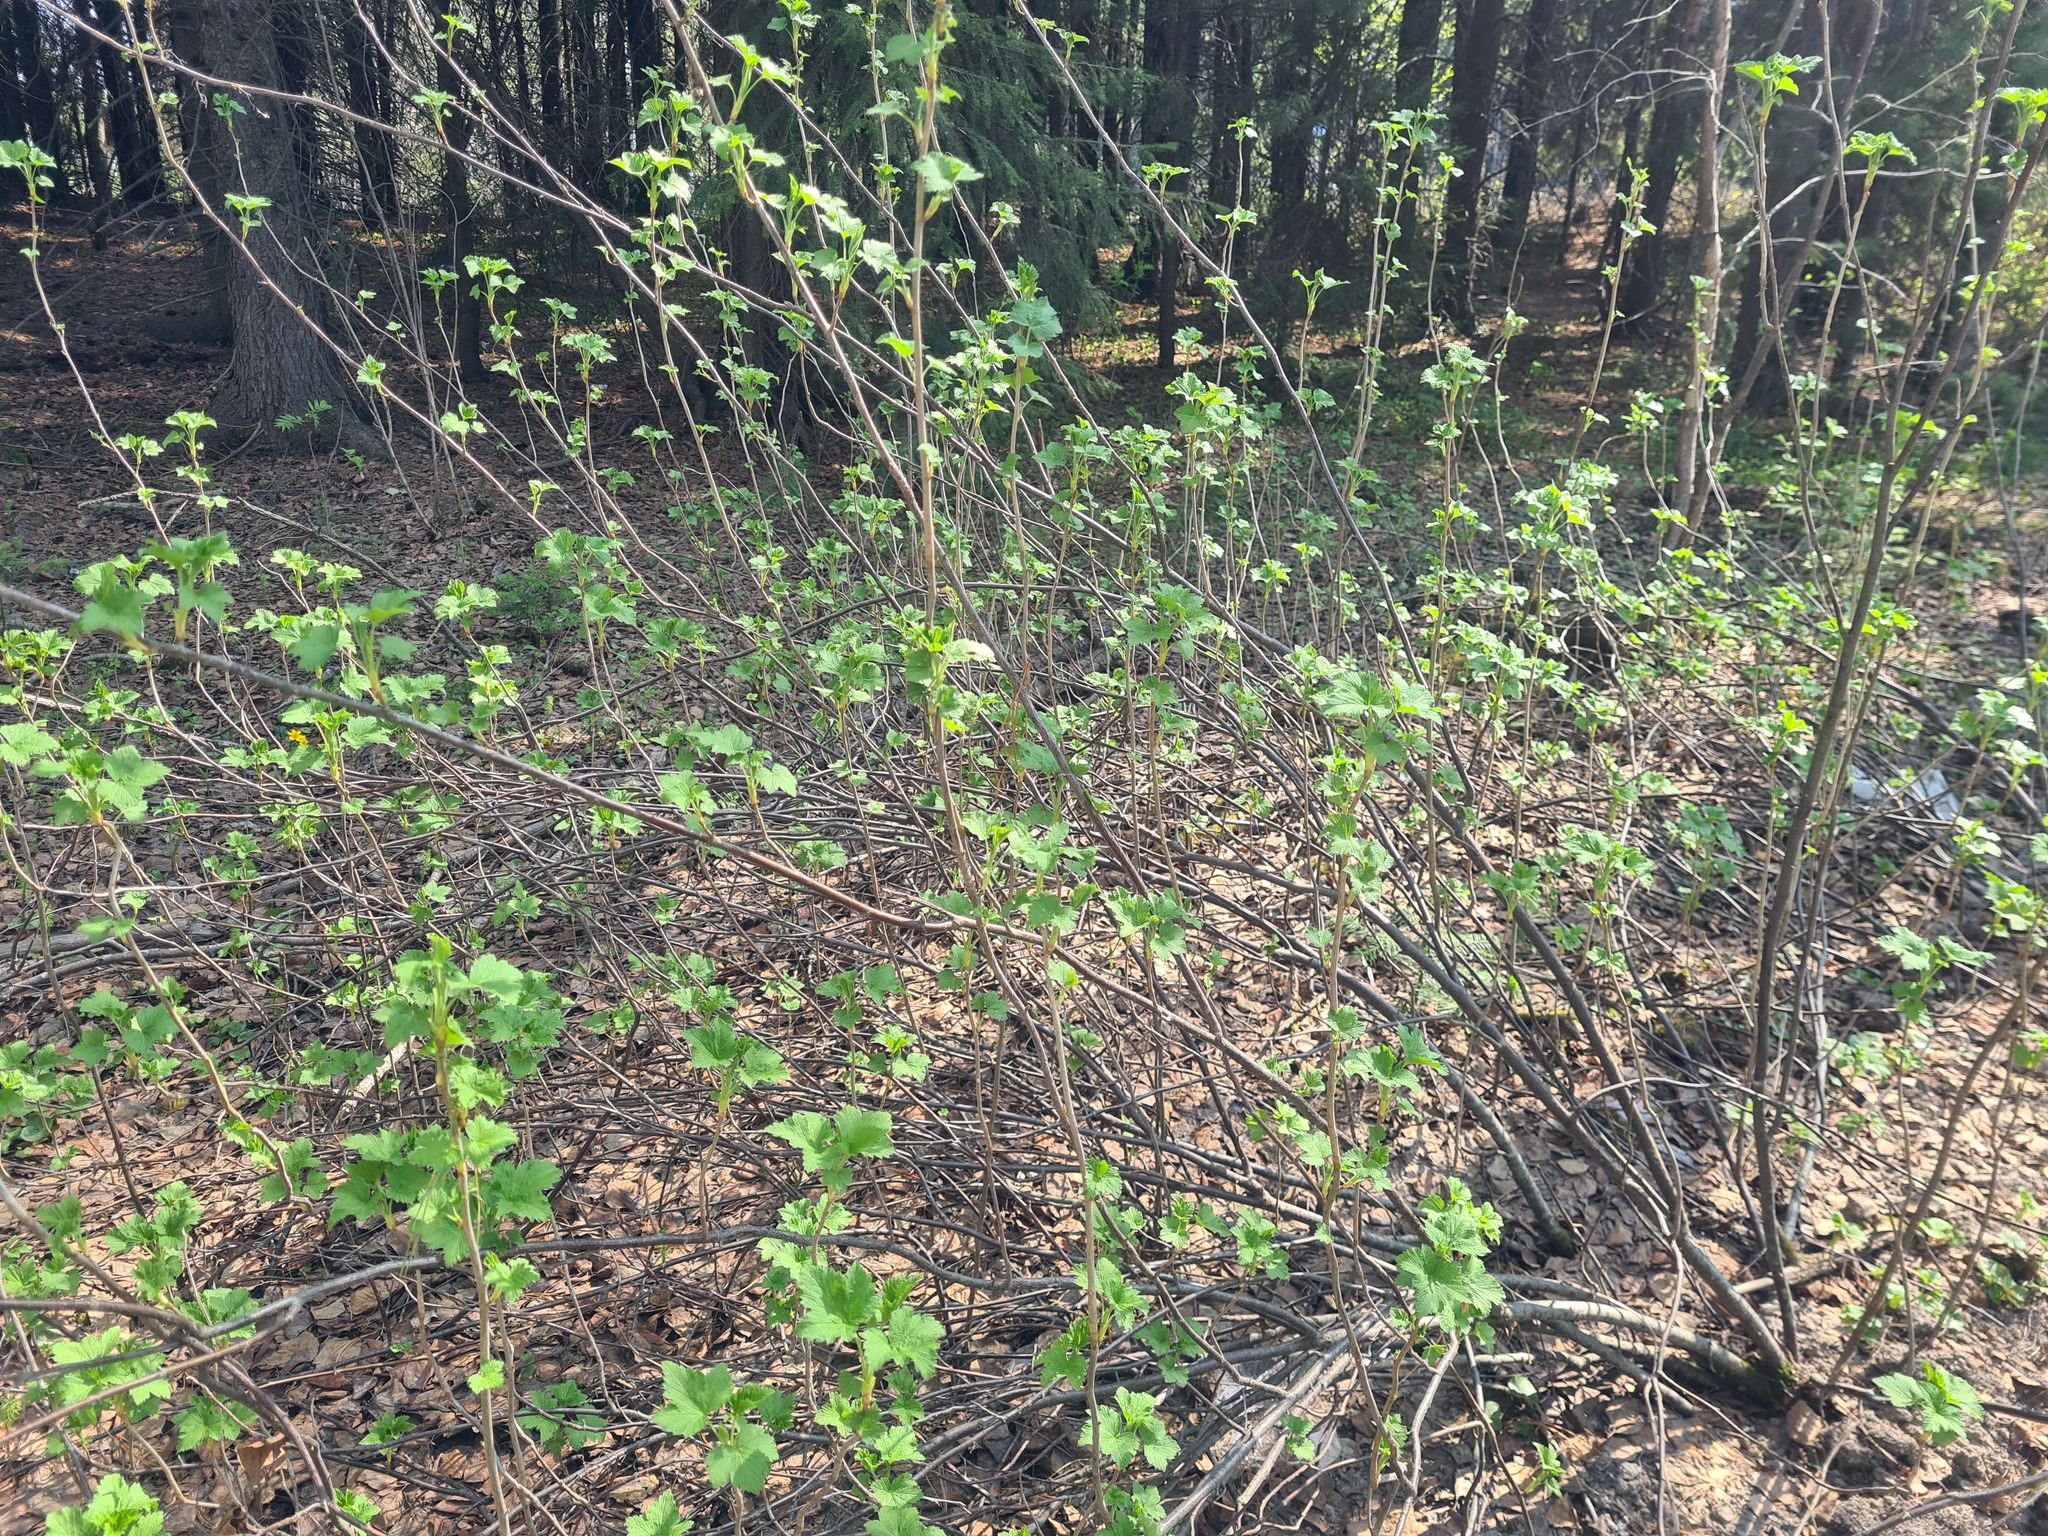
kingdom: Plantae
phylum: Tracheophyta
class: Magnoliopsida
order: Saxifragales
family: Grossulariaceae
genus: Ribes
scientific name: Ribes nigrum
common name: Black currant
